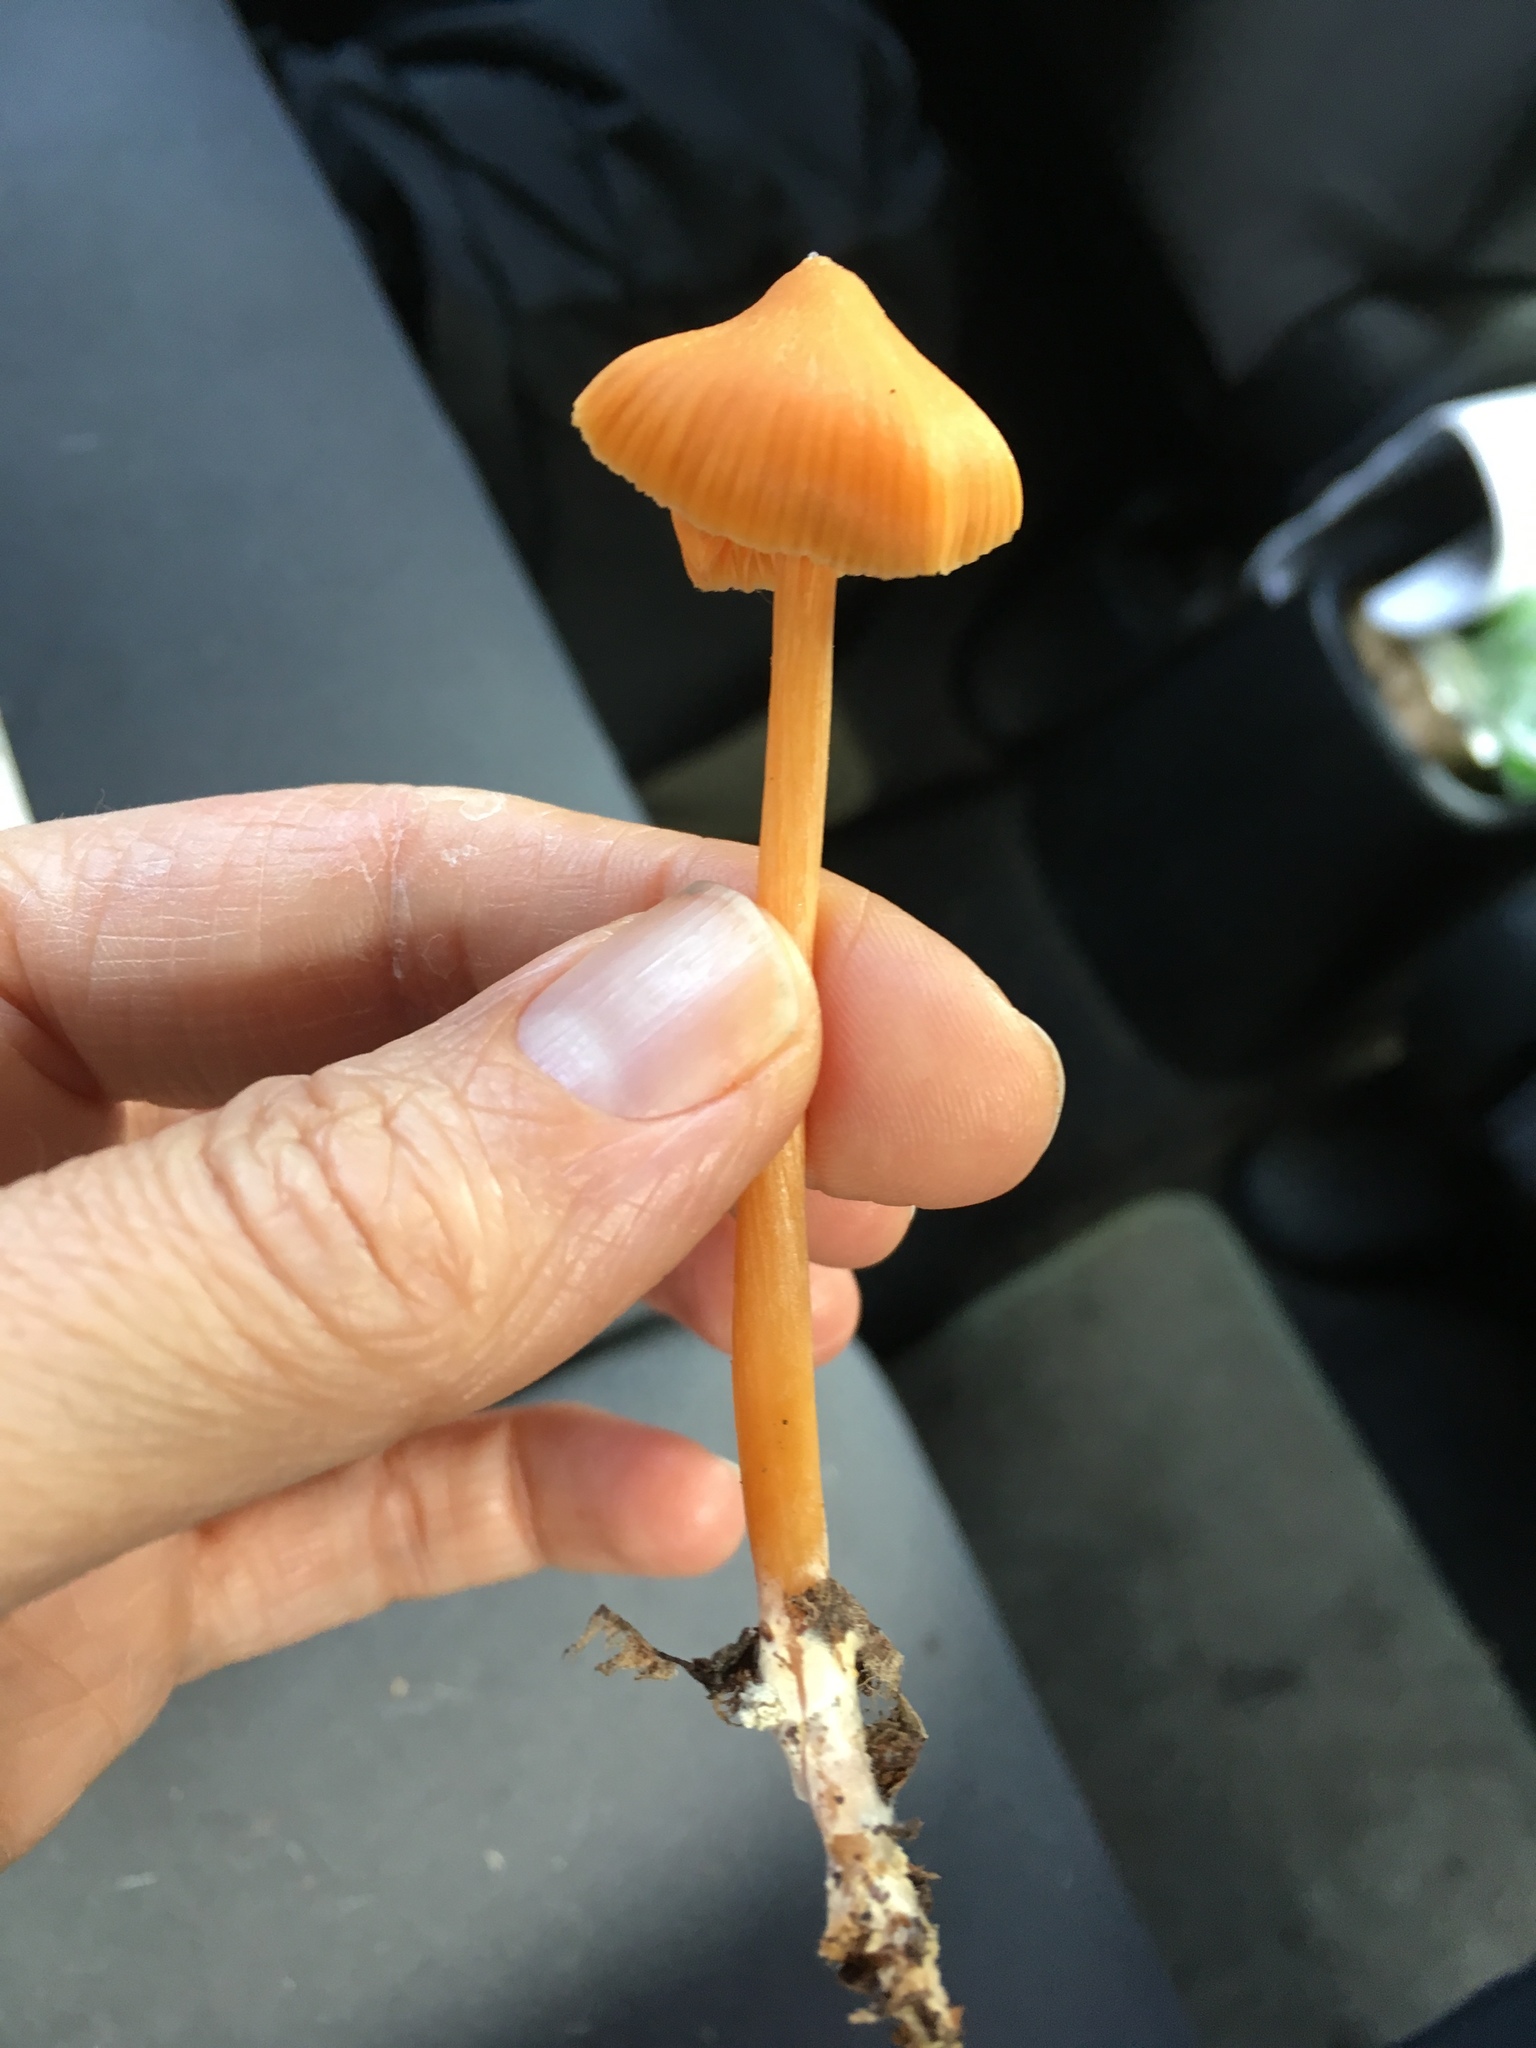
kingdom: Fungi
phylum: Basidiomycota
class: Agaricomycetes
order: Agaricales
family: Entolomataceae
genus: Entoloma
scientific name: Entoloma quadratum
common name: Salmon pinkgill
